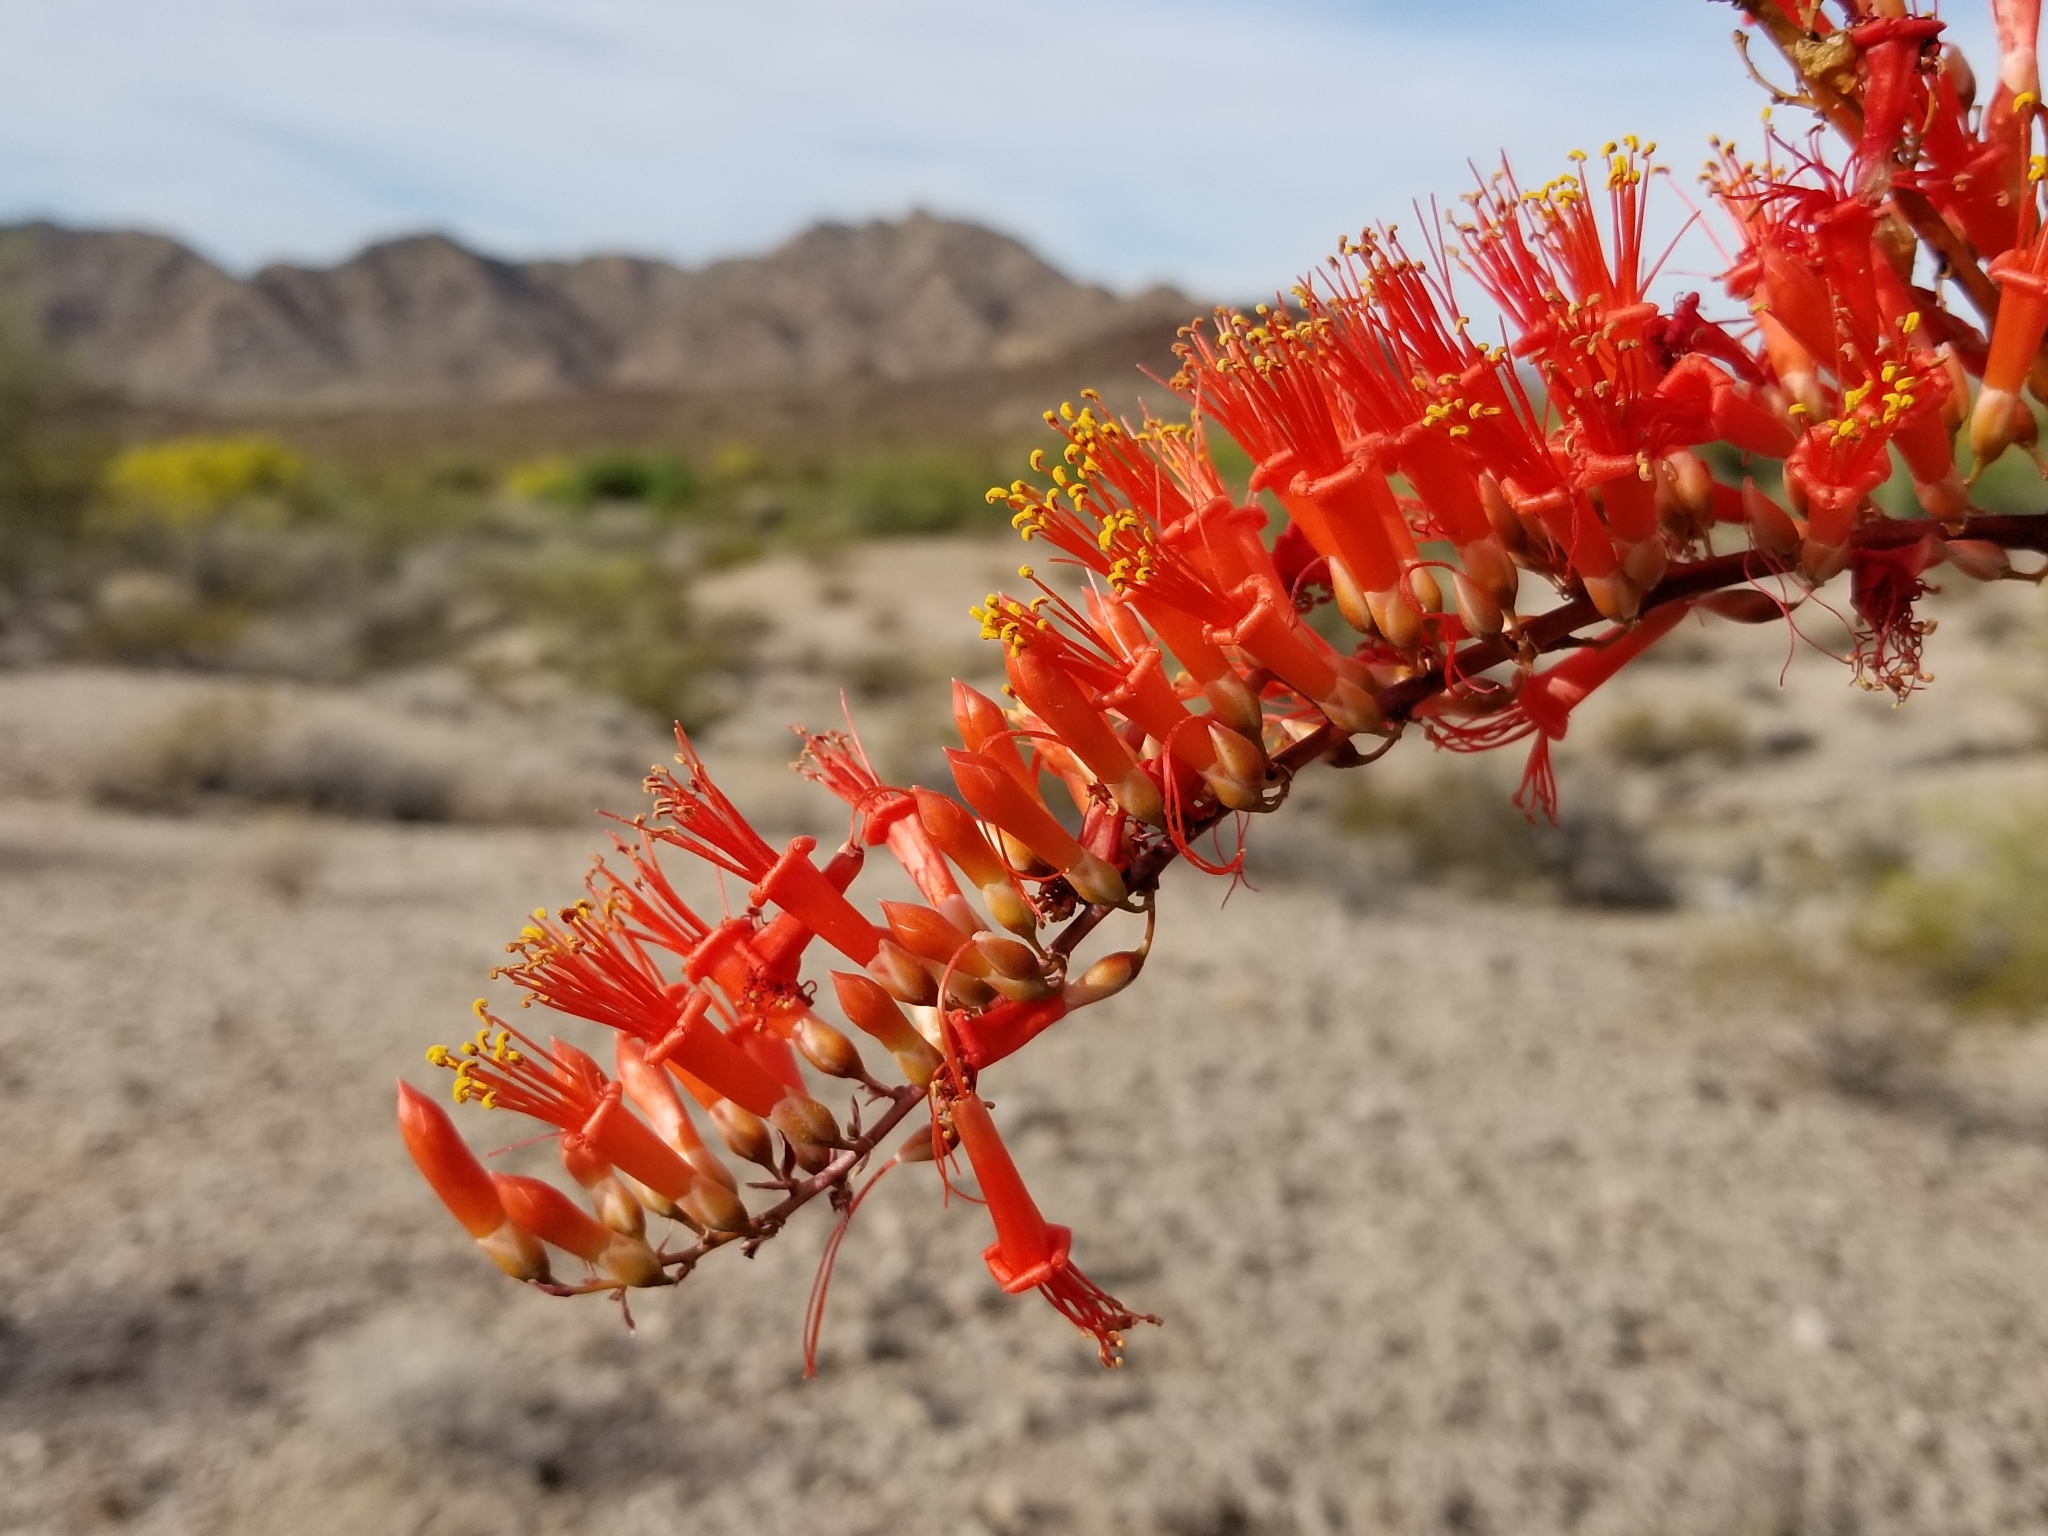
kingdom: Plantae
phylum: Tracheophyta
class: Magnoliopsida
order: Ericales
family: Fouquieriaceae
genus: Fouquieria
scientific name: Fouquieria splendens
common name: Vine-cactus
